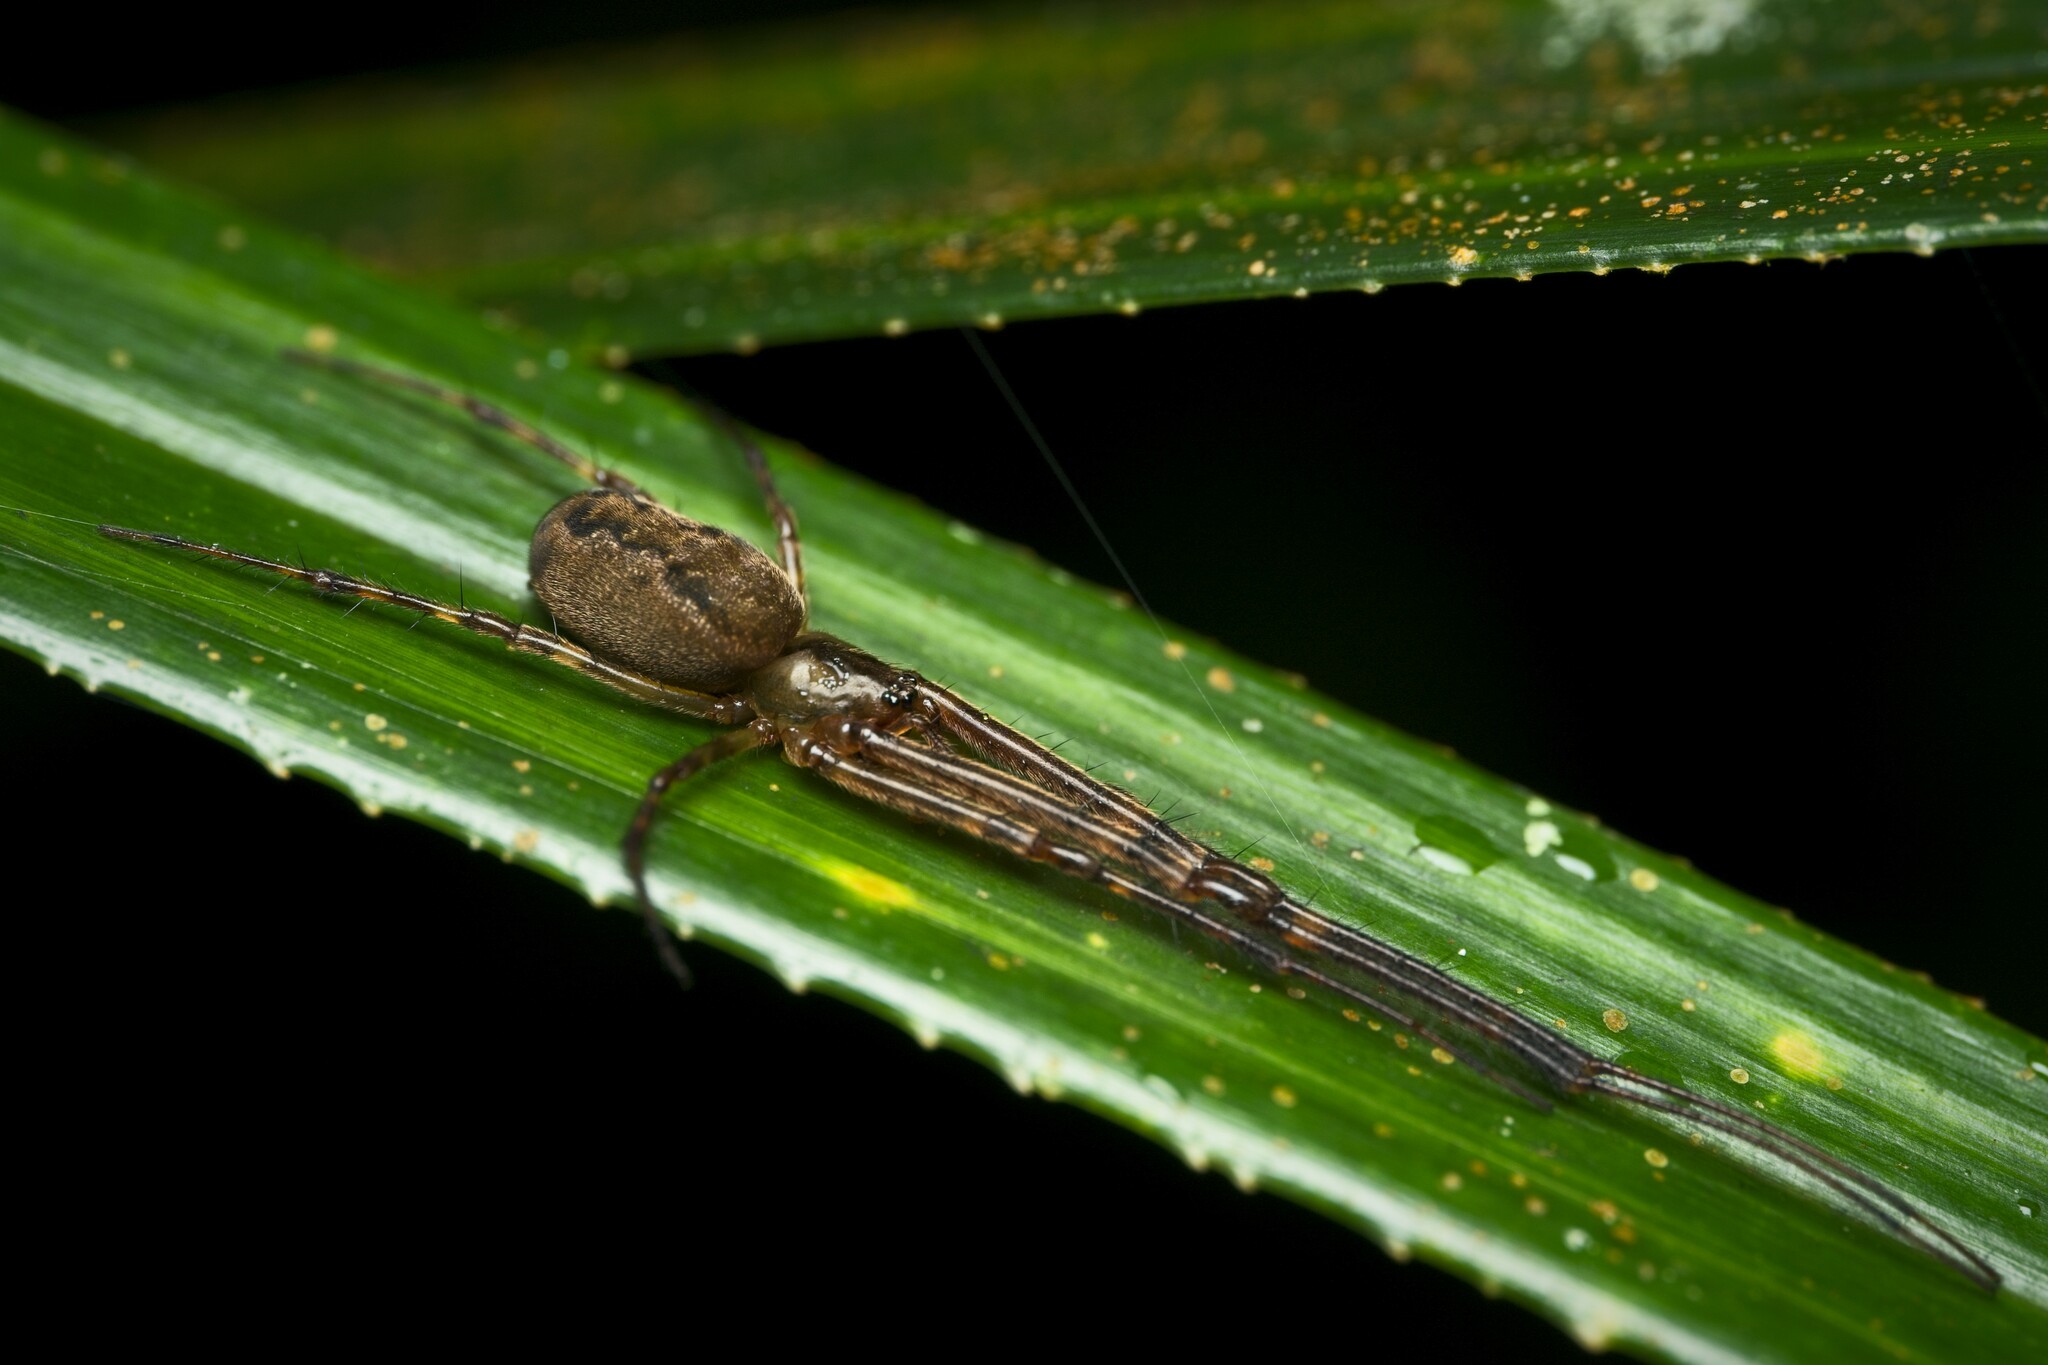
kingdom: Animalia
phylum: Arthropoda
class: Arachnida
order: Araneae
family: Tetragnathidae
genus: Nanometa
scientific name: Nanometa lagenifera
